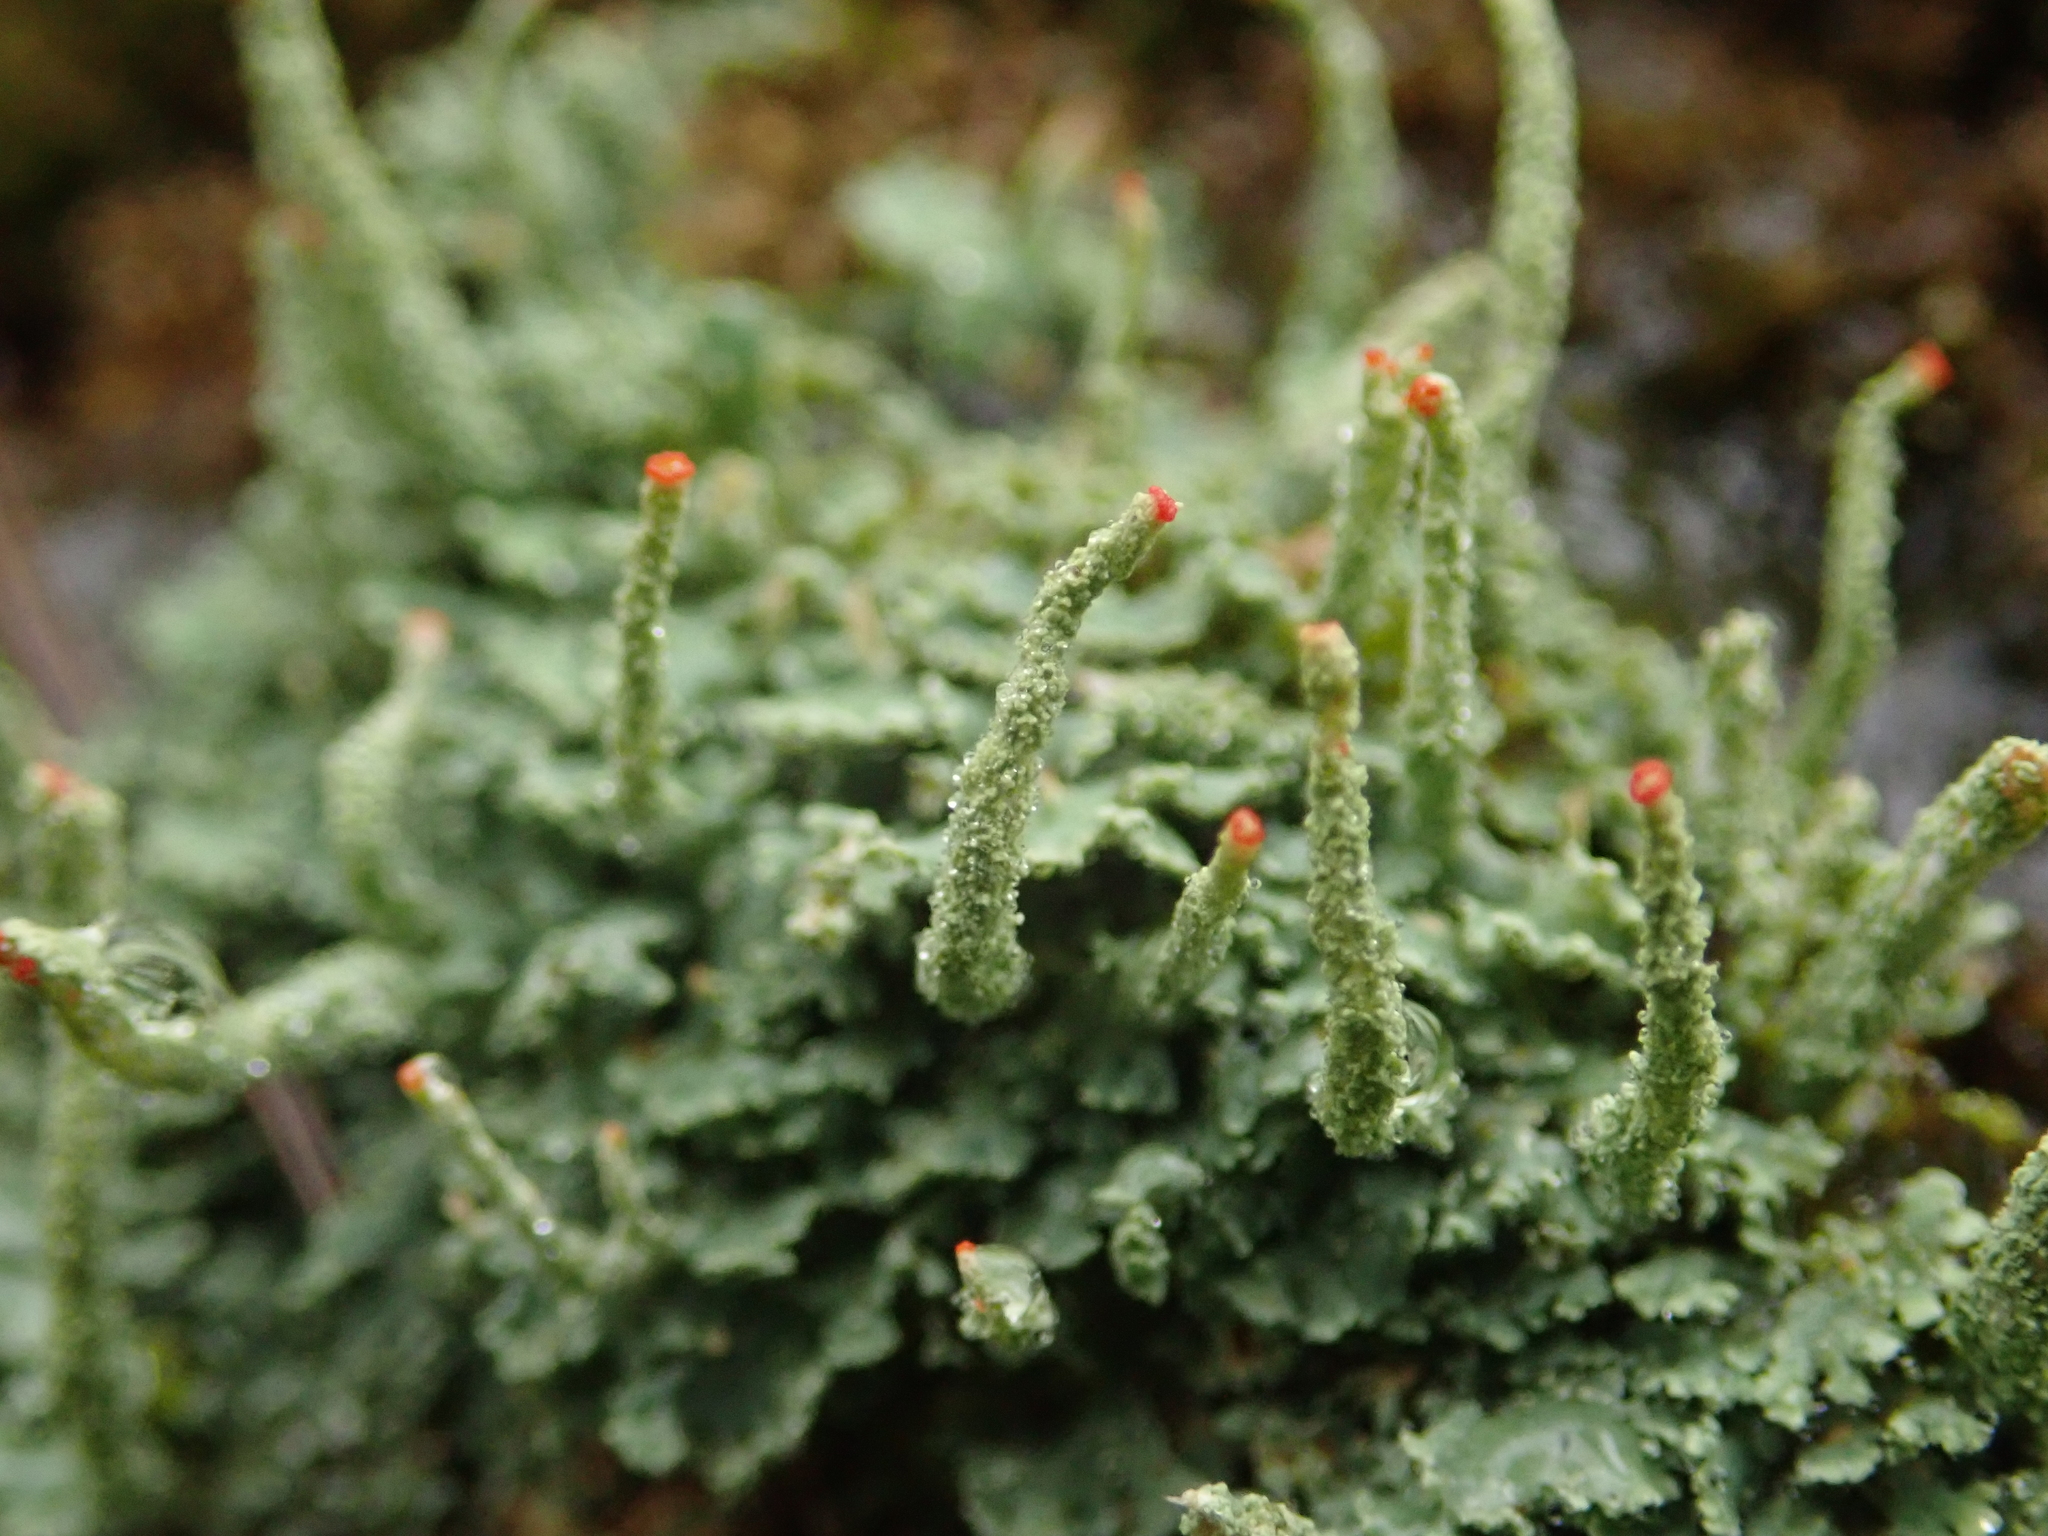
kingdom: Fungi
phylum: Ascomycota
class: Lecanoromycetes
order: Lecanorales
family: Cladoniaceae
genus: Cladonia
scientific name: Cladonia macilenta
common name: Lipstick powderhorn
